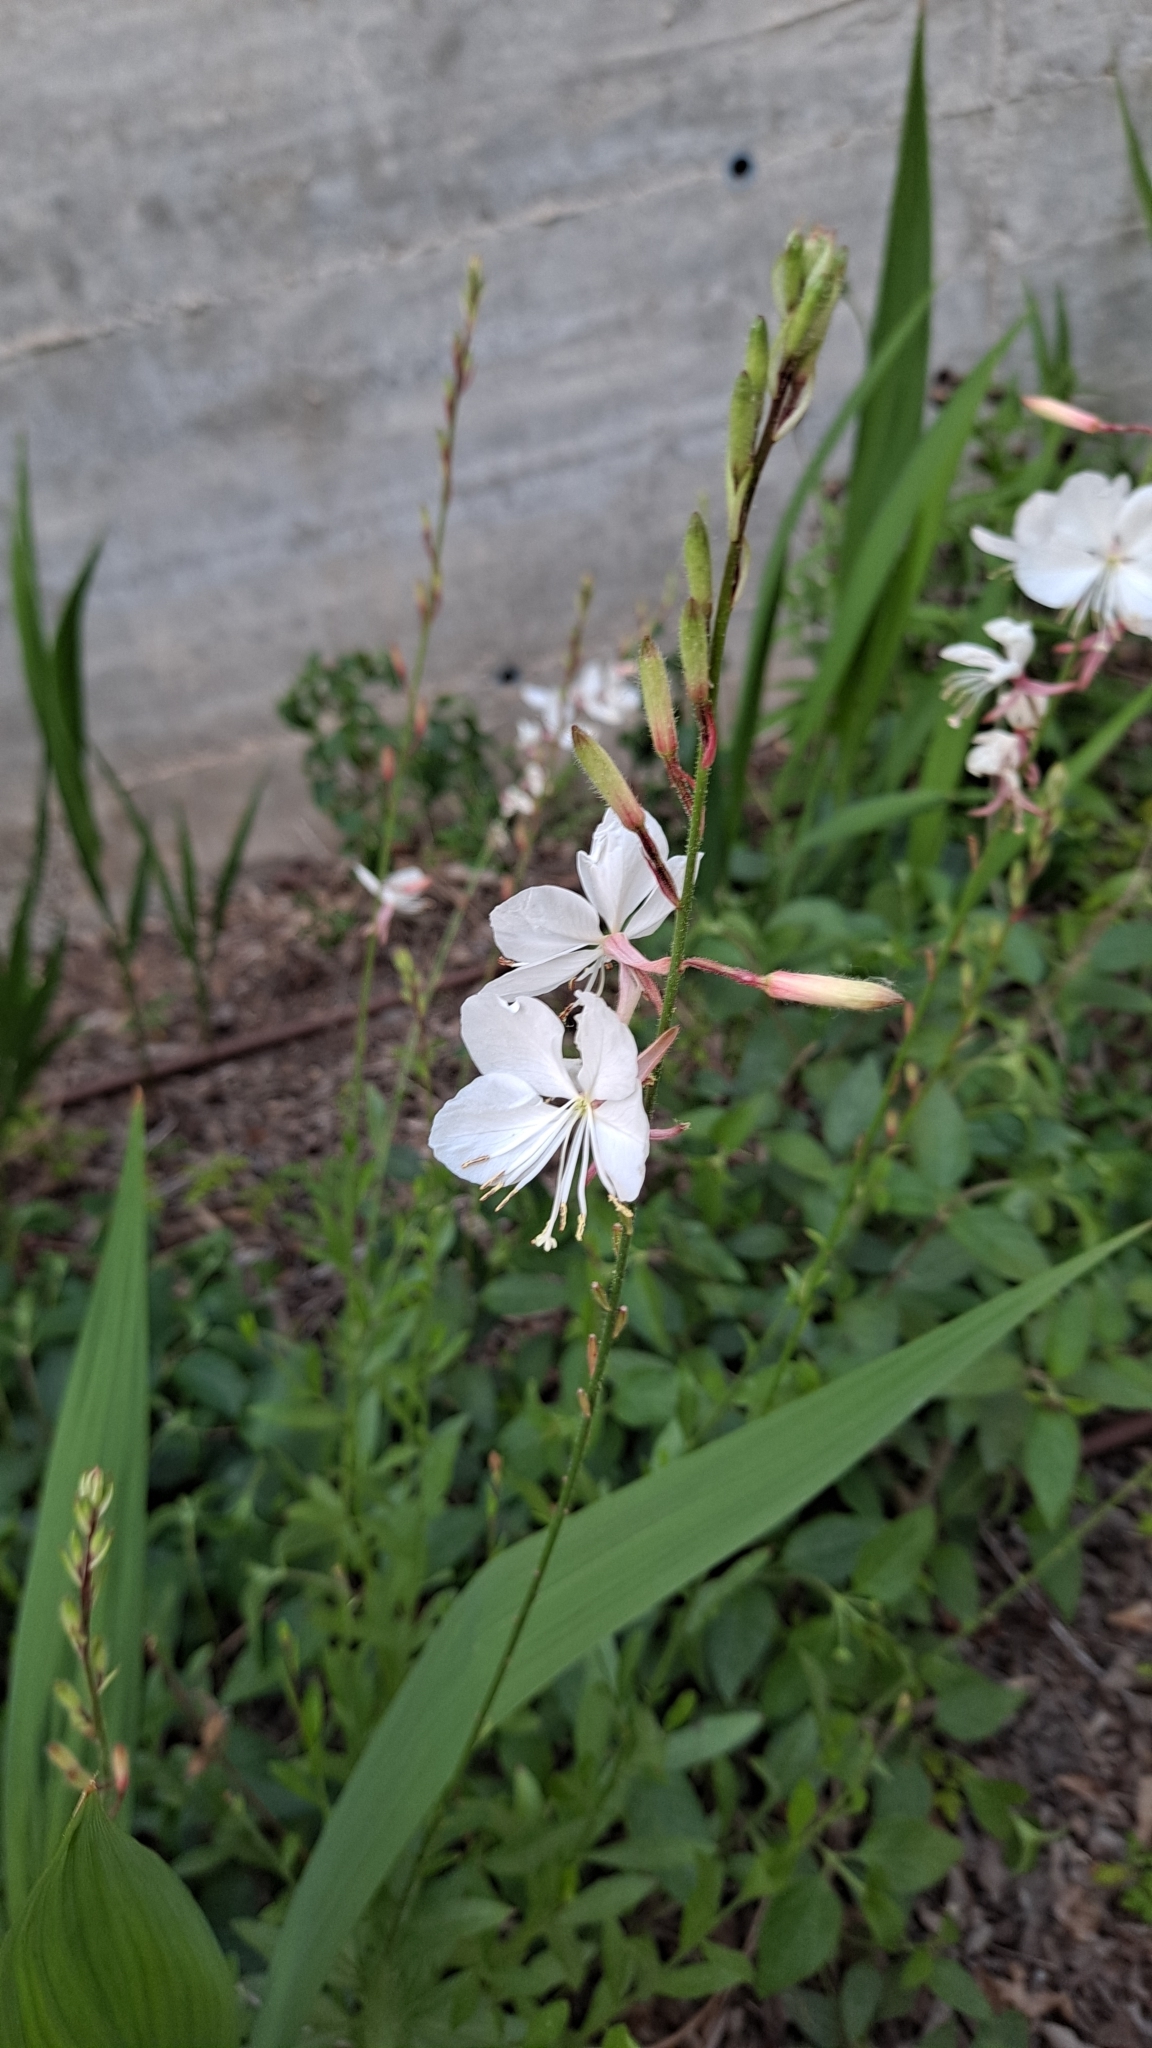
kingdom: Plantae
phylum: Tracheophyta
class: Magnoliopsida
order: Myrtales
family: Onagraceae
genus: Oenothera
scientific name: Oenothera lindheimeri
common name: Lindheimer's beeblossom
